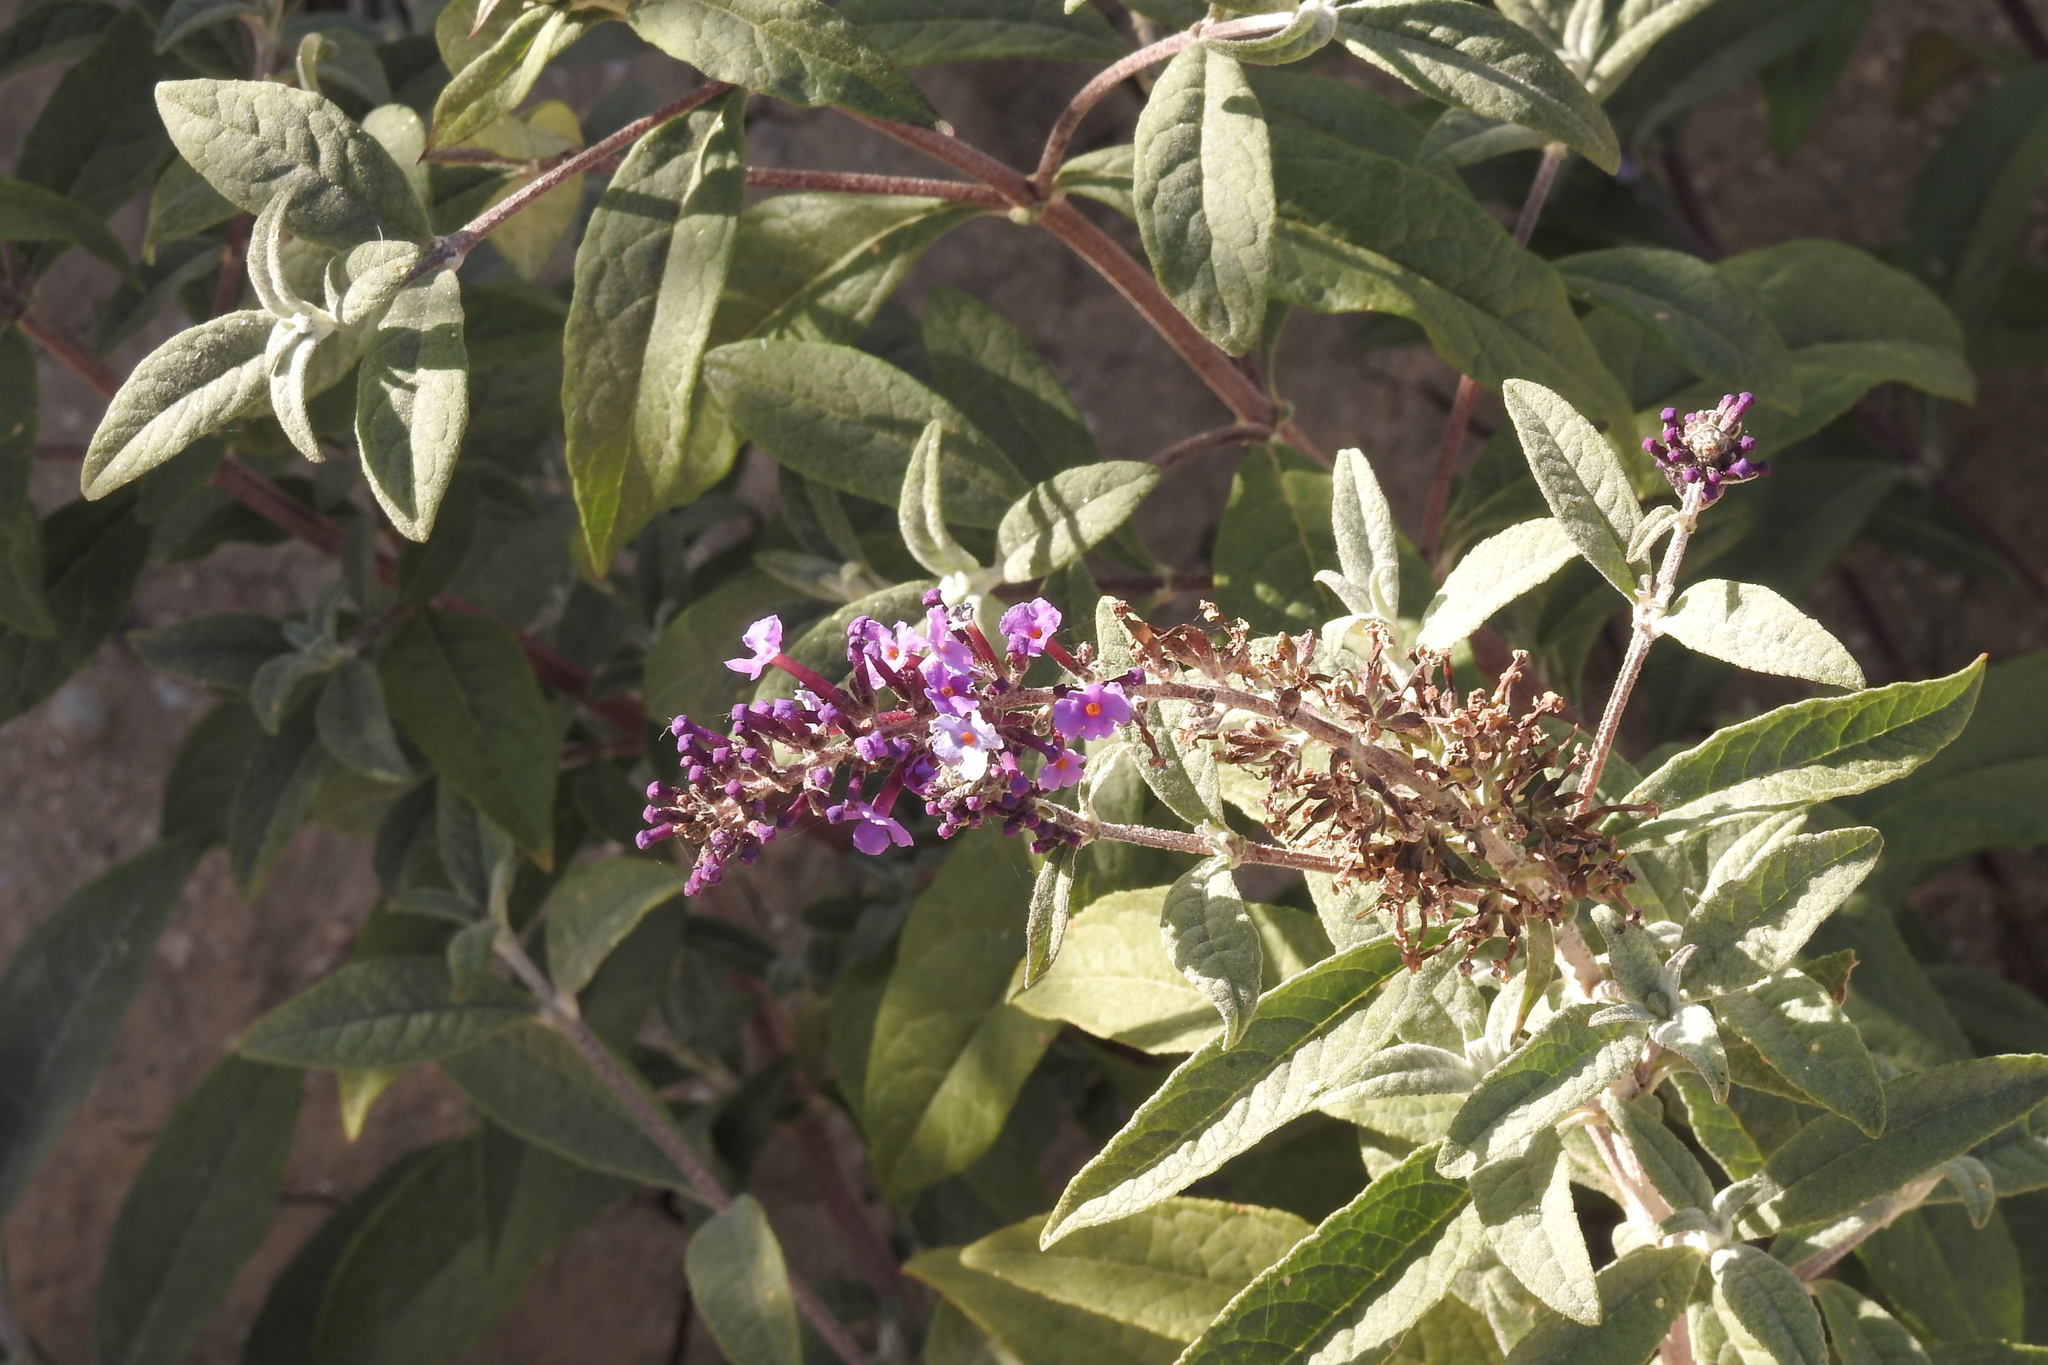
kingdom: Plantae
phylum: Tracheophyta
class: Magnoliopsida
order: Lamiales
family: Scrophulariaceae
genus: Buddleja
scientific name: Buddleja davidii
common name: Butterfly-bush
